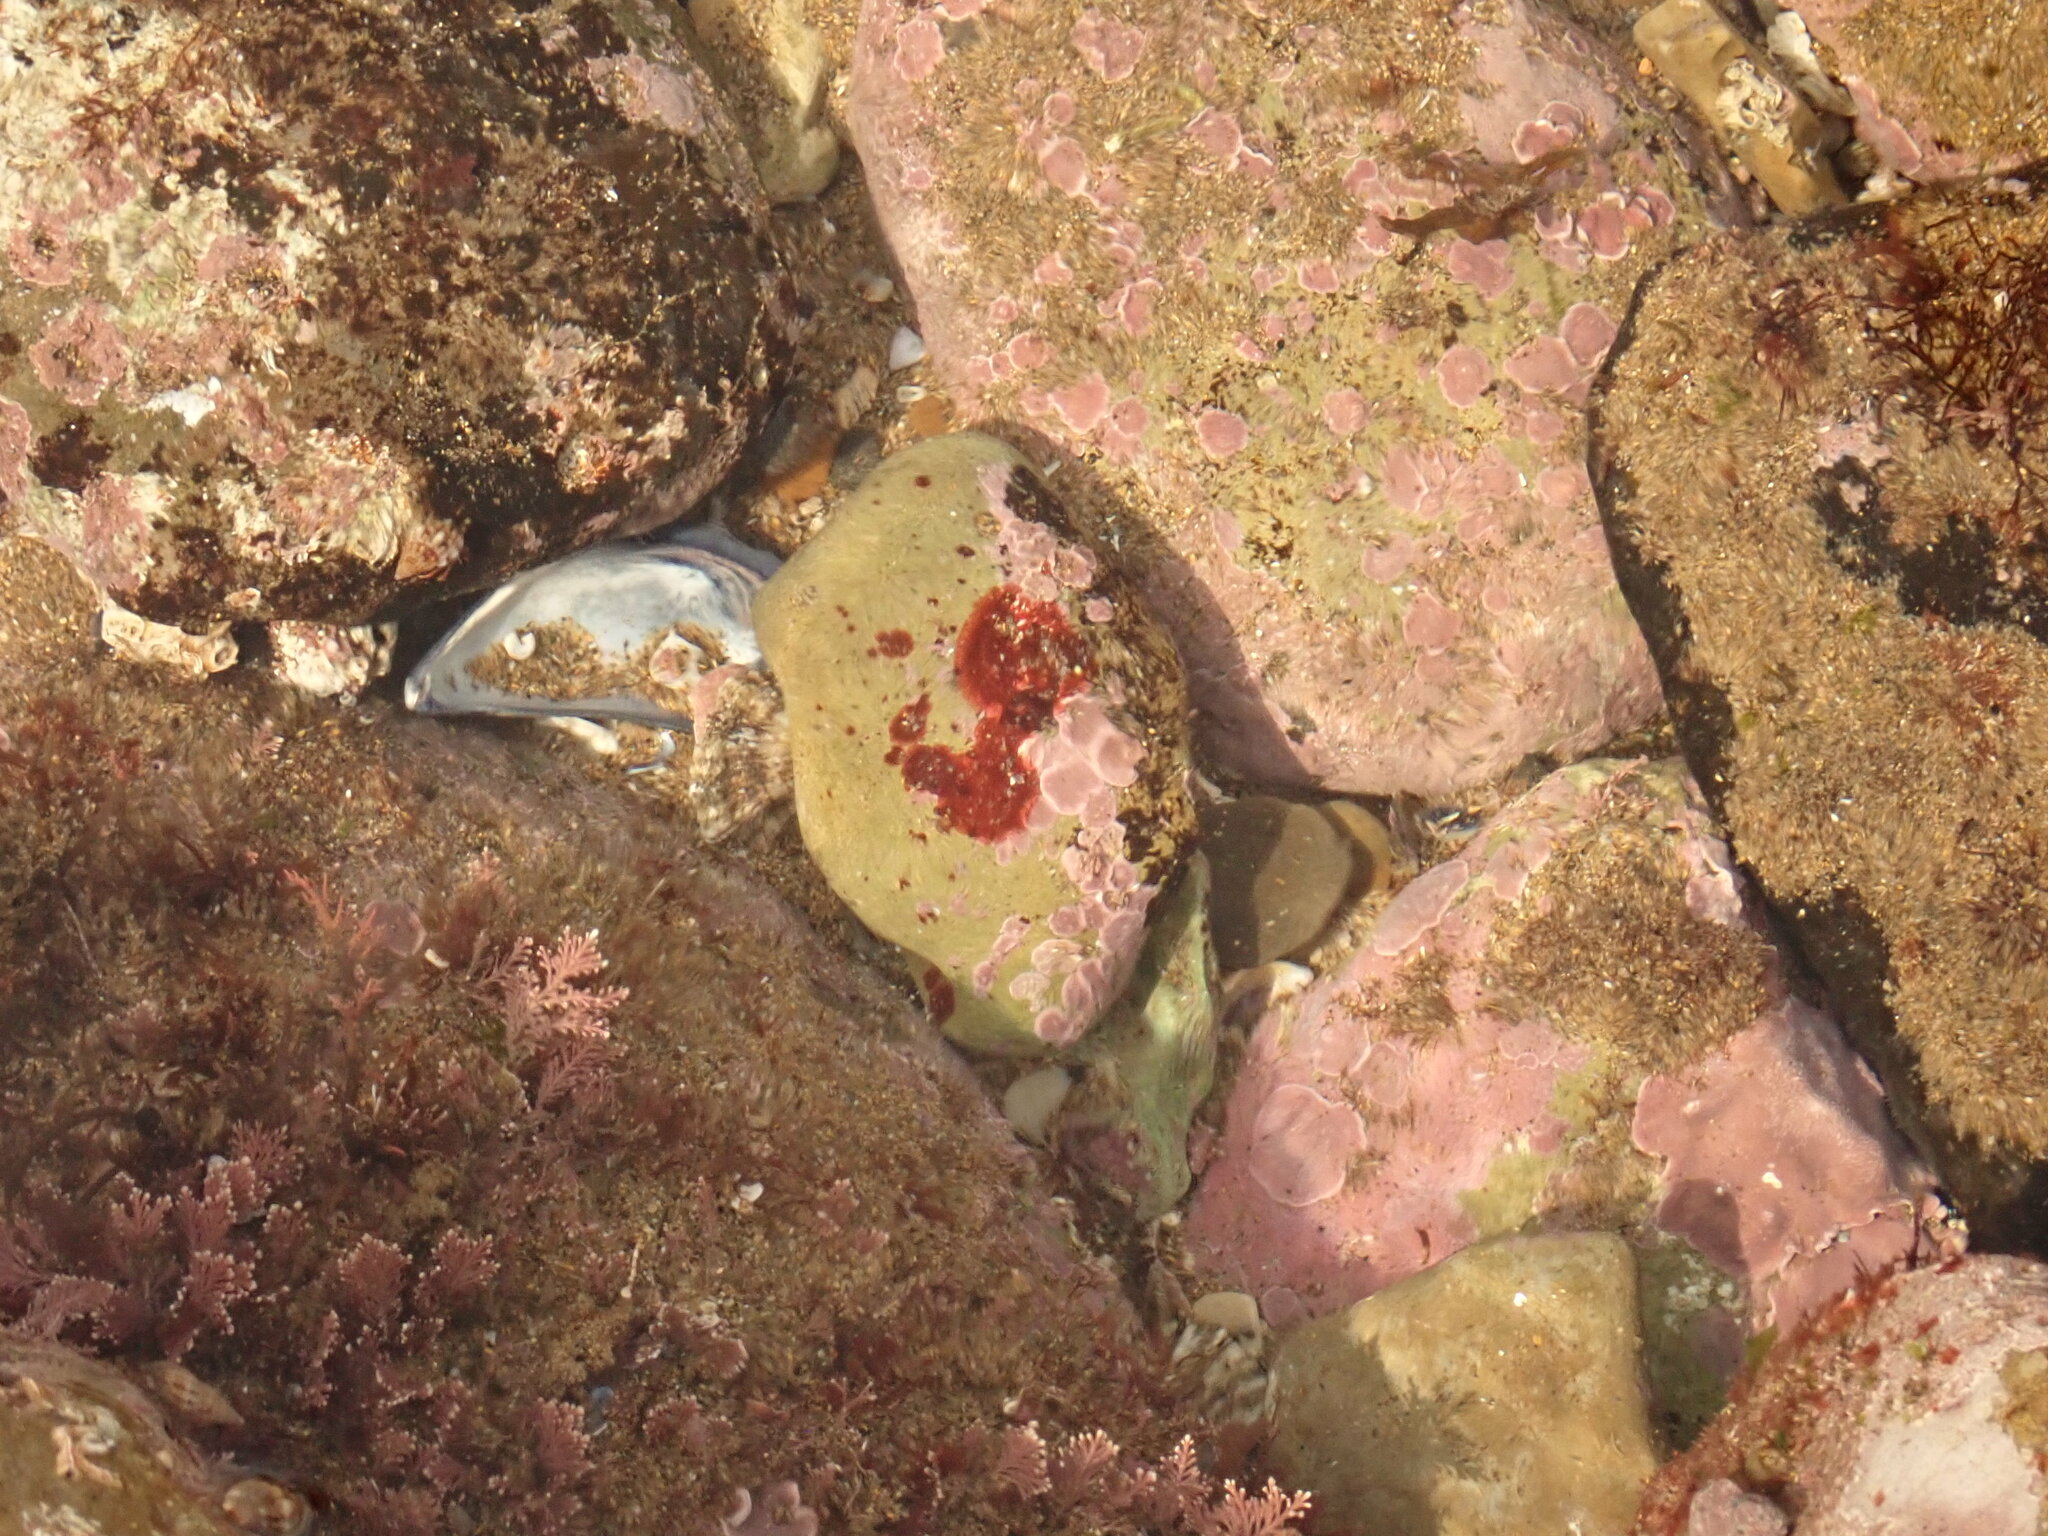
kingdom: Plantae
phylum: Rhodophyta
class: Florideophyceae
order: Hildenbrandiales
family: Hildenbrandiaceae
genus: Hildenbrandia
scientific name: Hildenbrandia rubra
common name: Rusty rock
